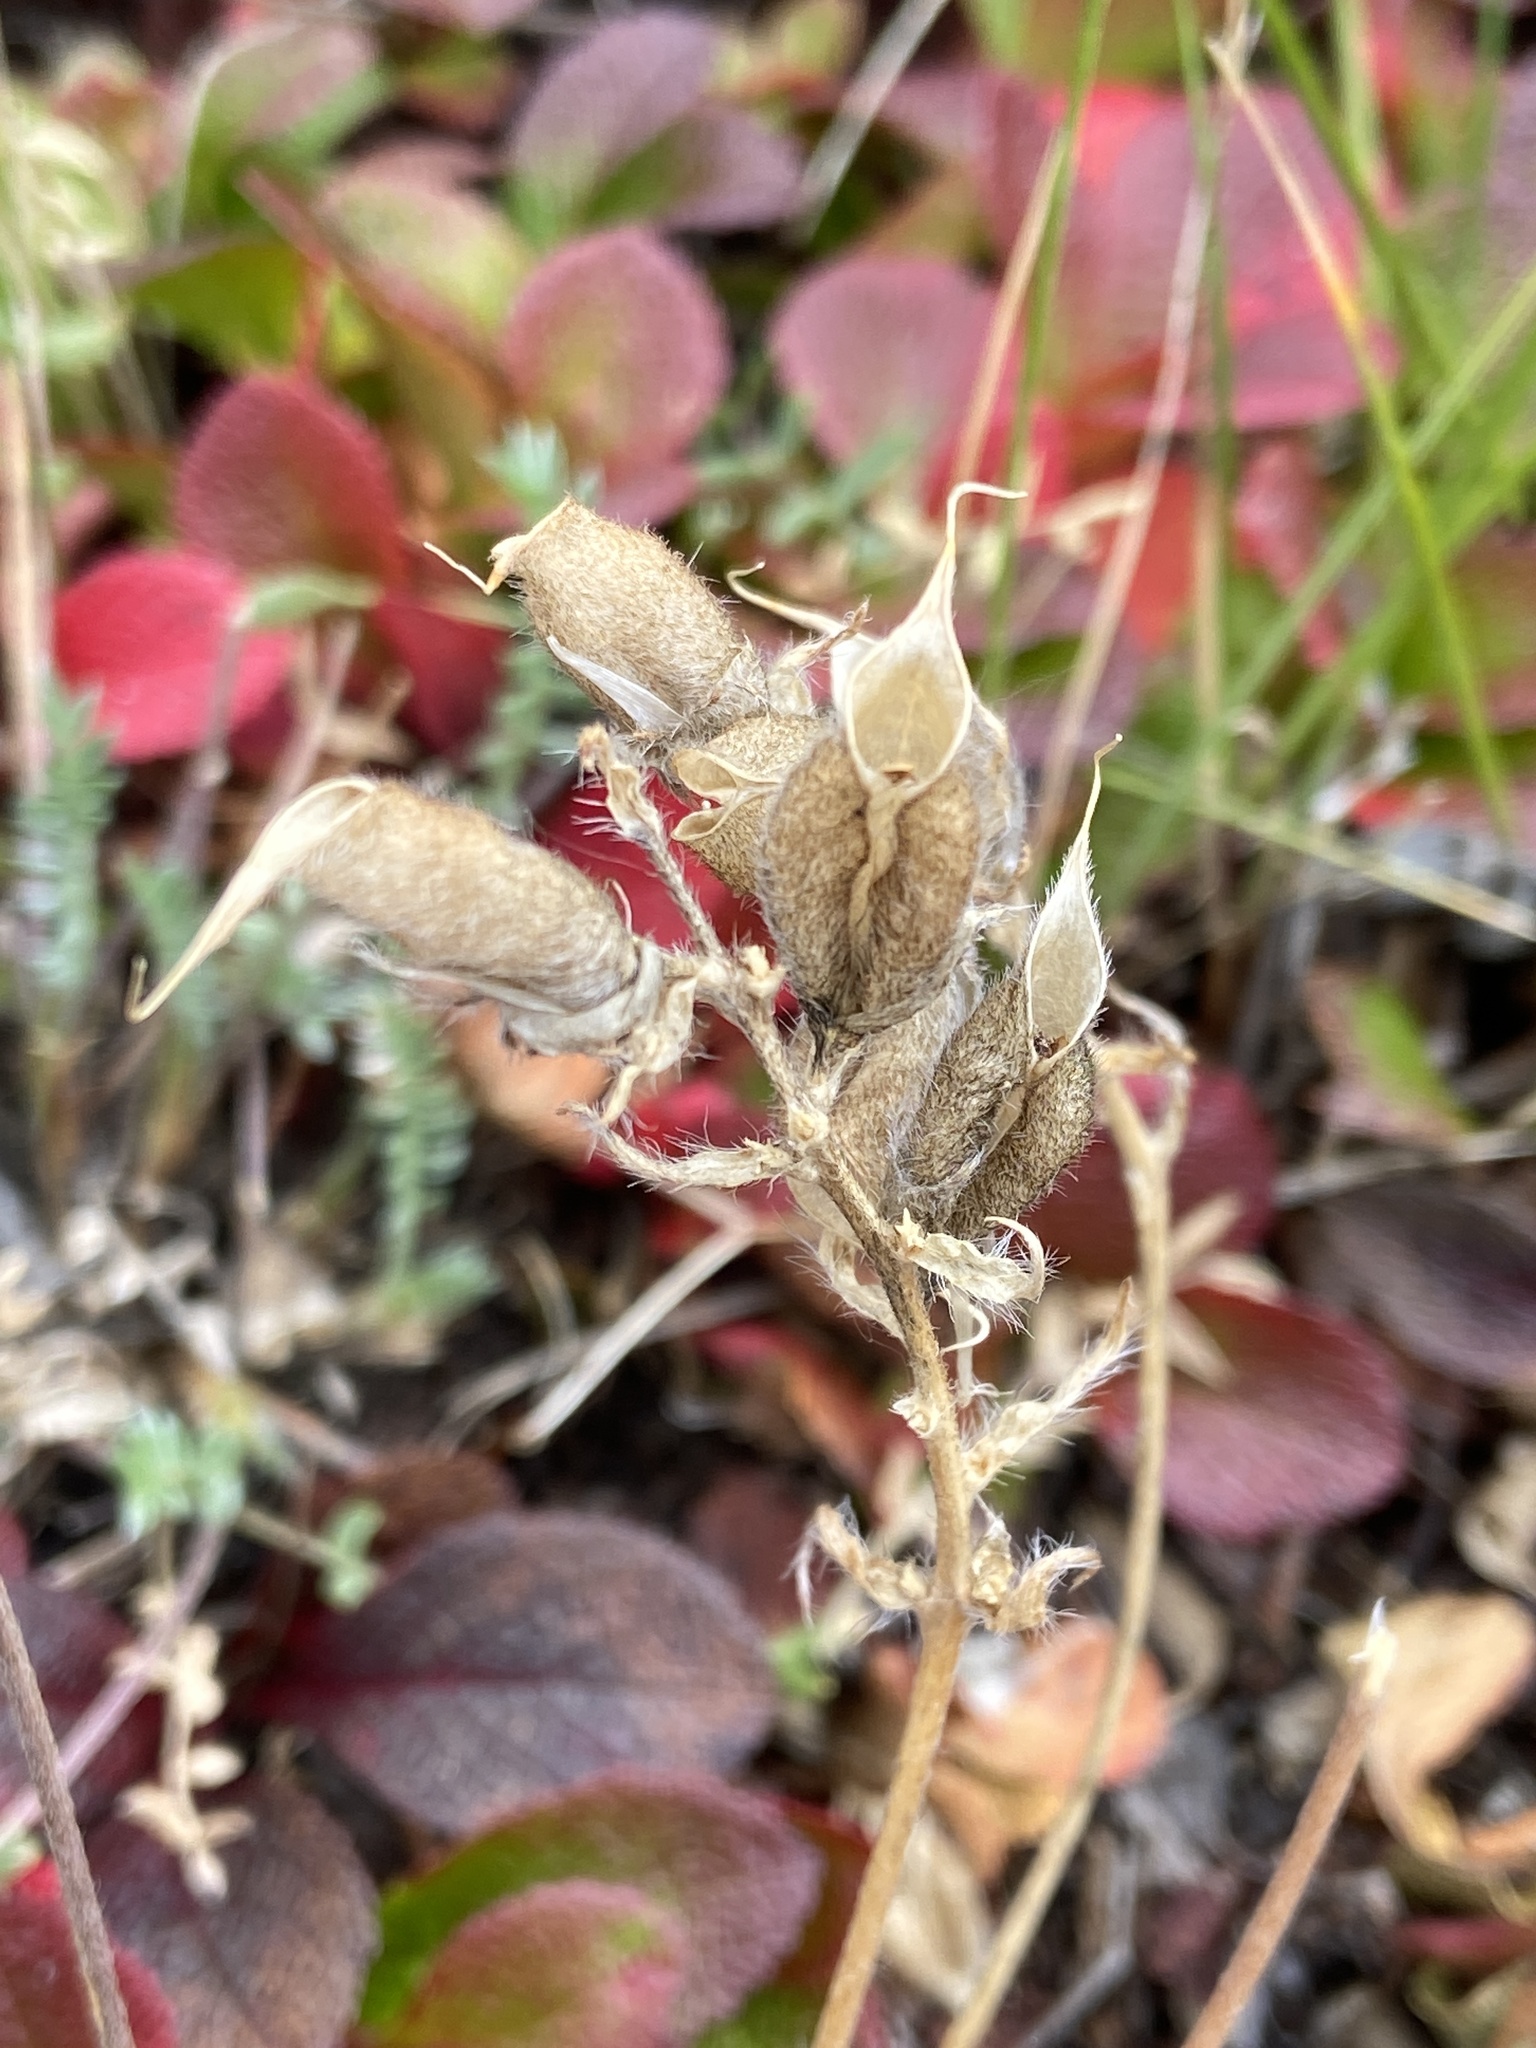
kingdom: Plantae
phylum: Tracheophyta
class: Magnoliopsida
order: Fabales
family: Fabaceae
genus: Oxytropis
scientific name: Oxytropis leucantha
